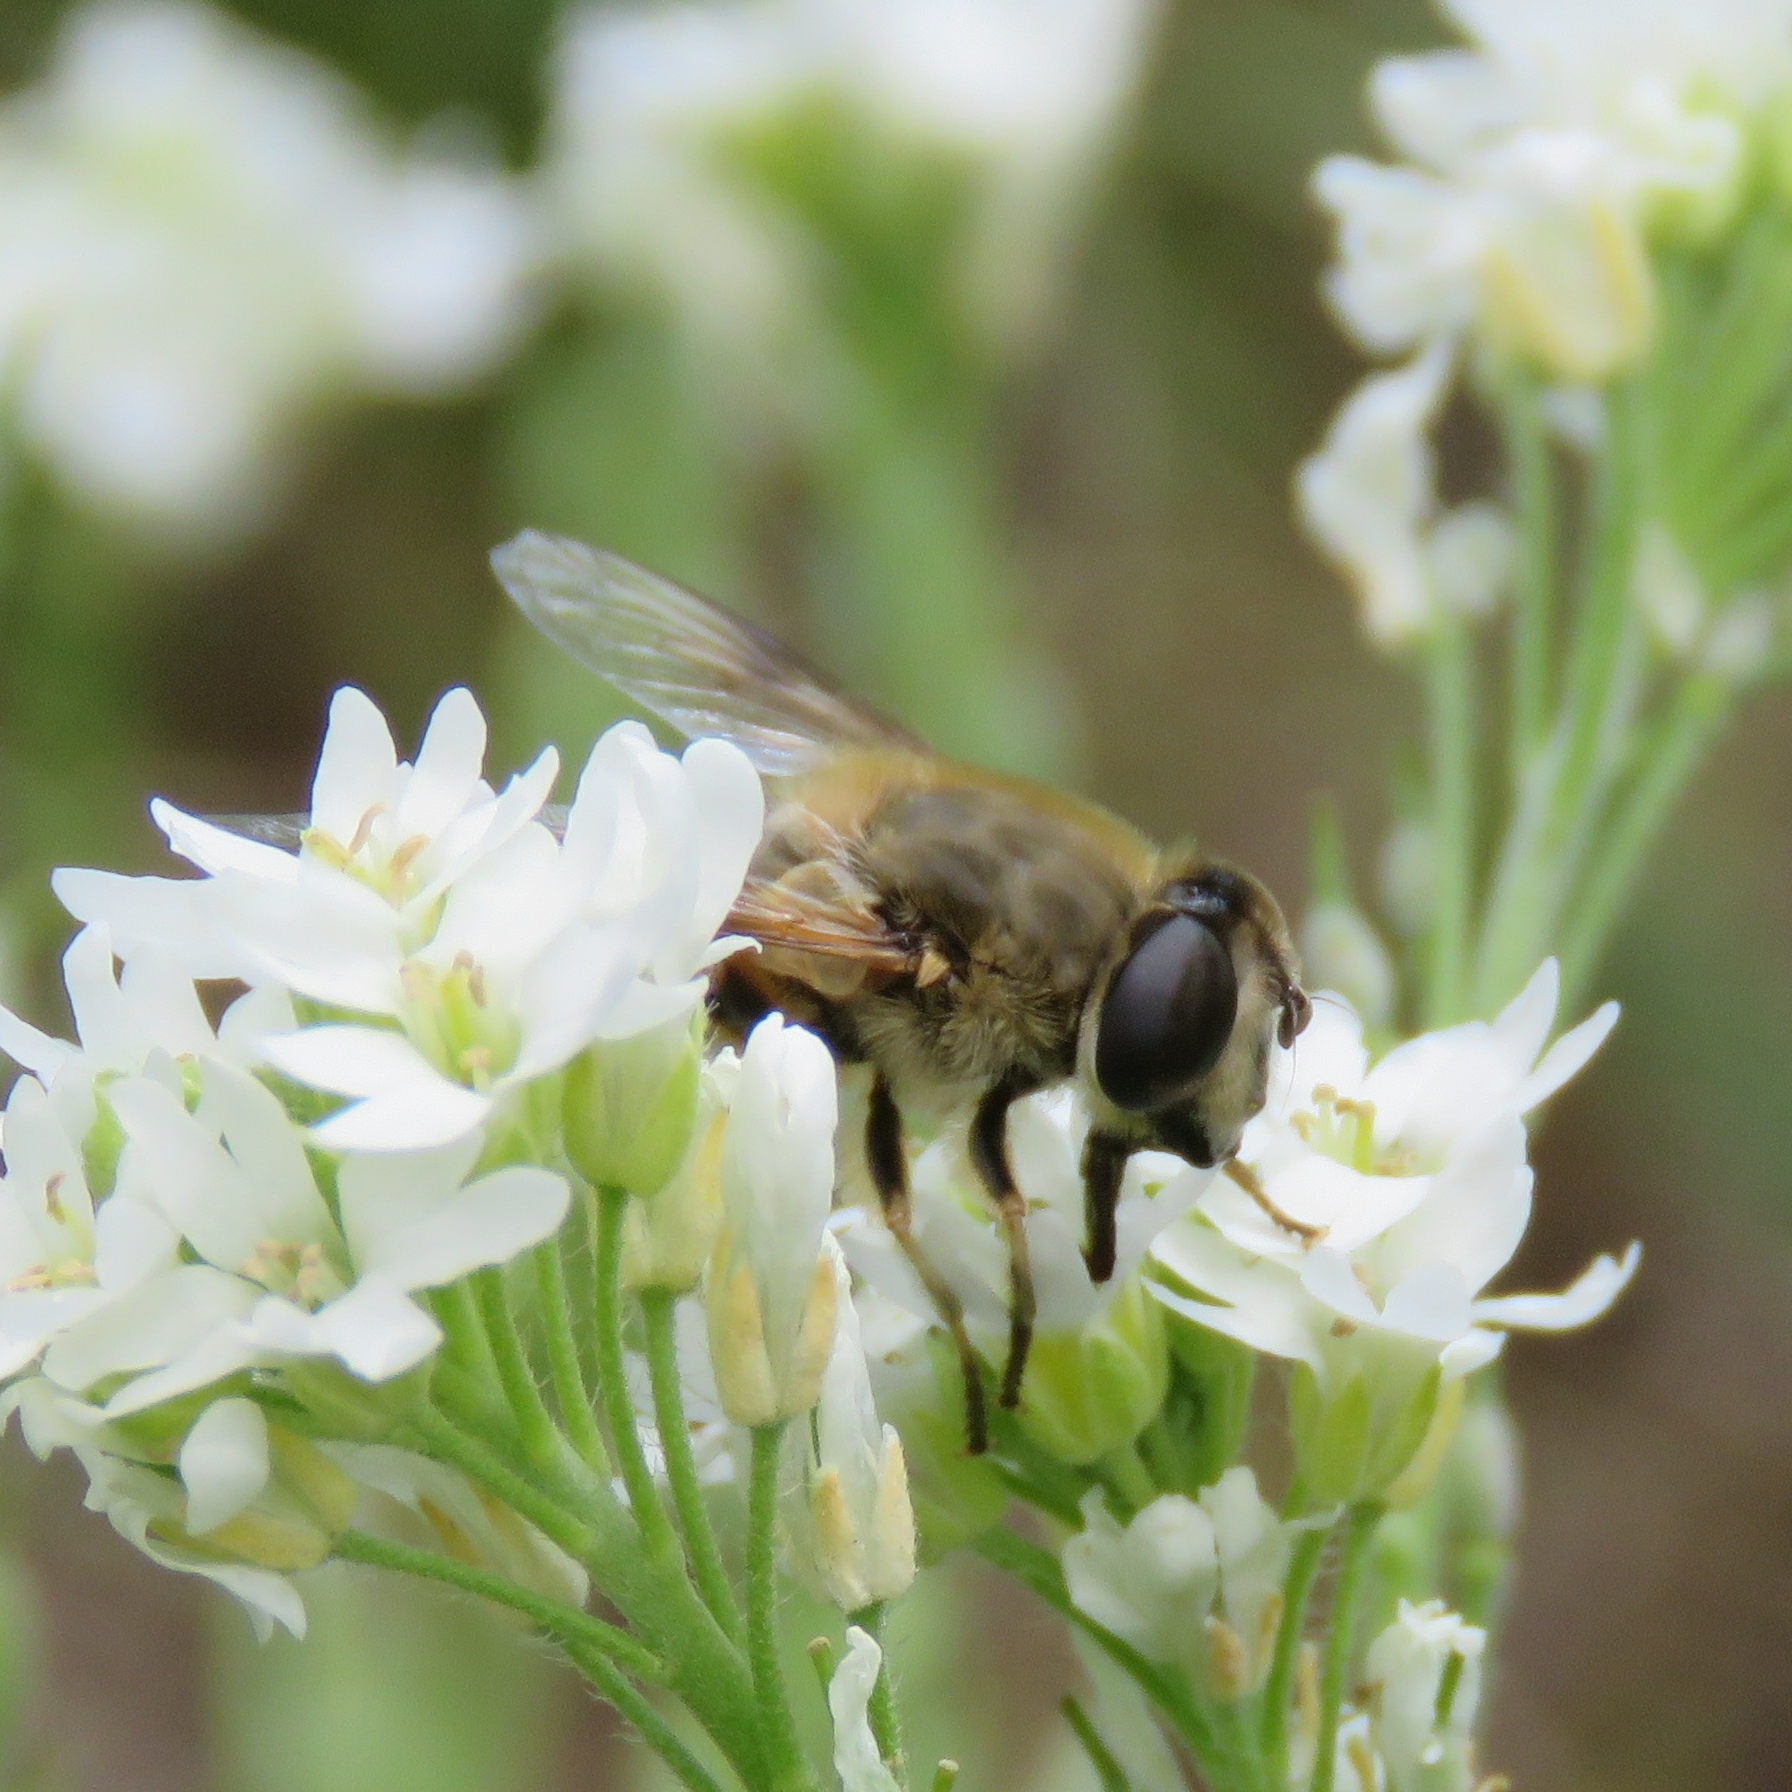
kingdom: Animalia
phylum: Arthropoda
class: Insecta
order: Diptera
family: Syrphidae
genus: Eristalis
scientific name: Eristalis tenax
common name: Drone fly
